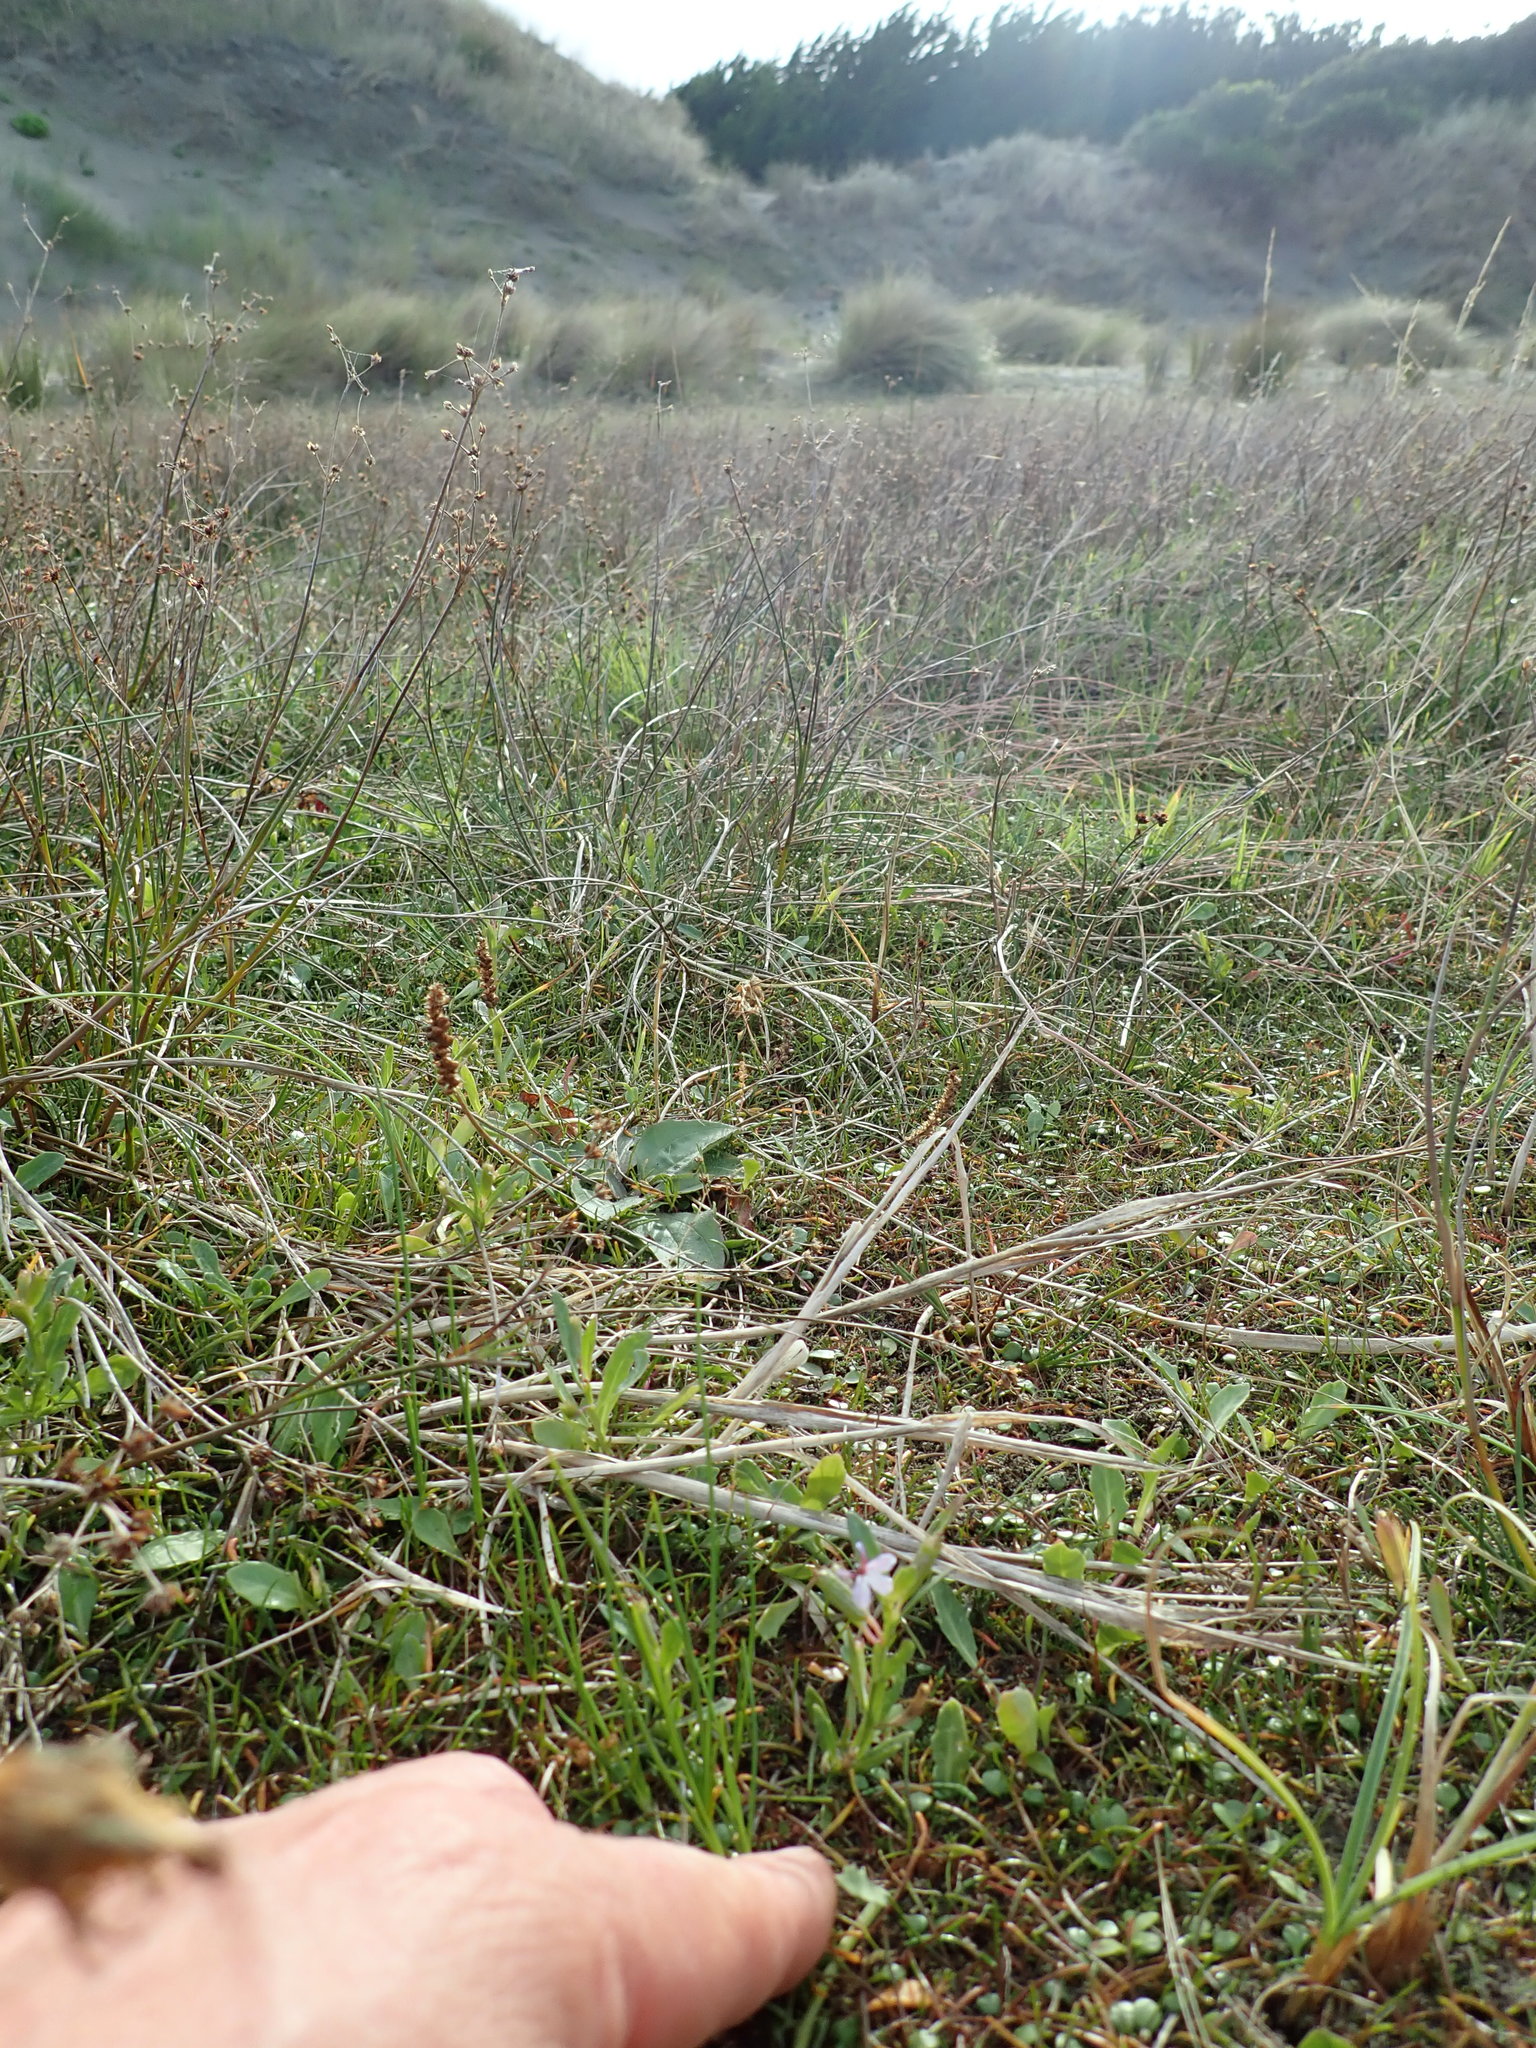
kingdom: Plantae
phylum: Tracheophyta
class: Magnoliopsida
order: Asterales
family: Campanulaceae
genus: Lobelia
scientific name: Lobelia anceps
